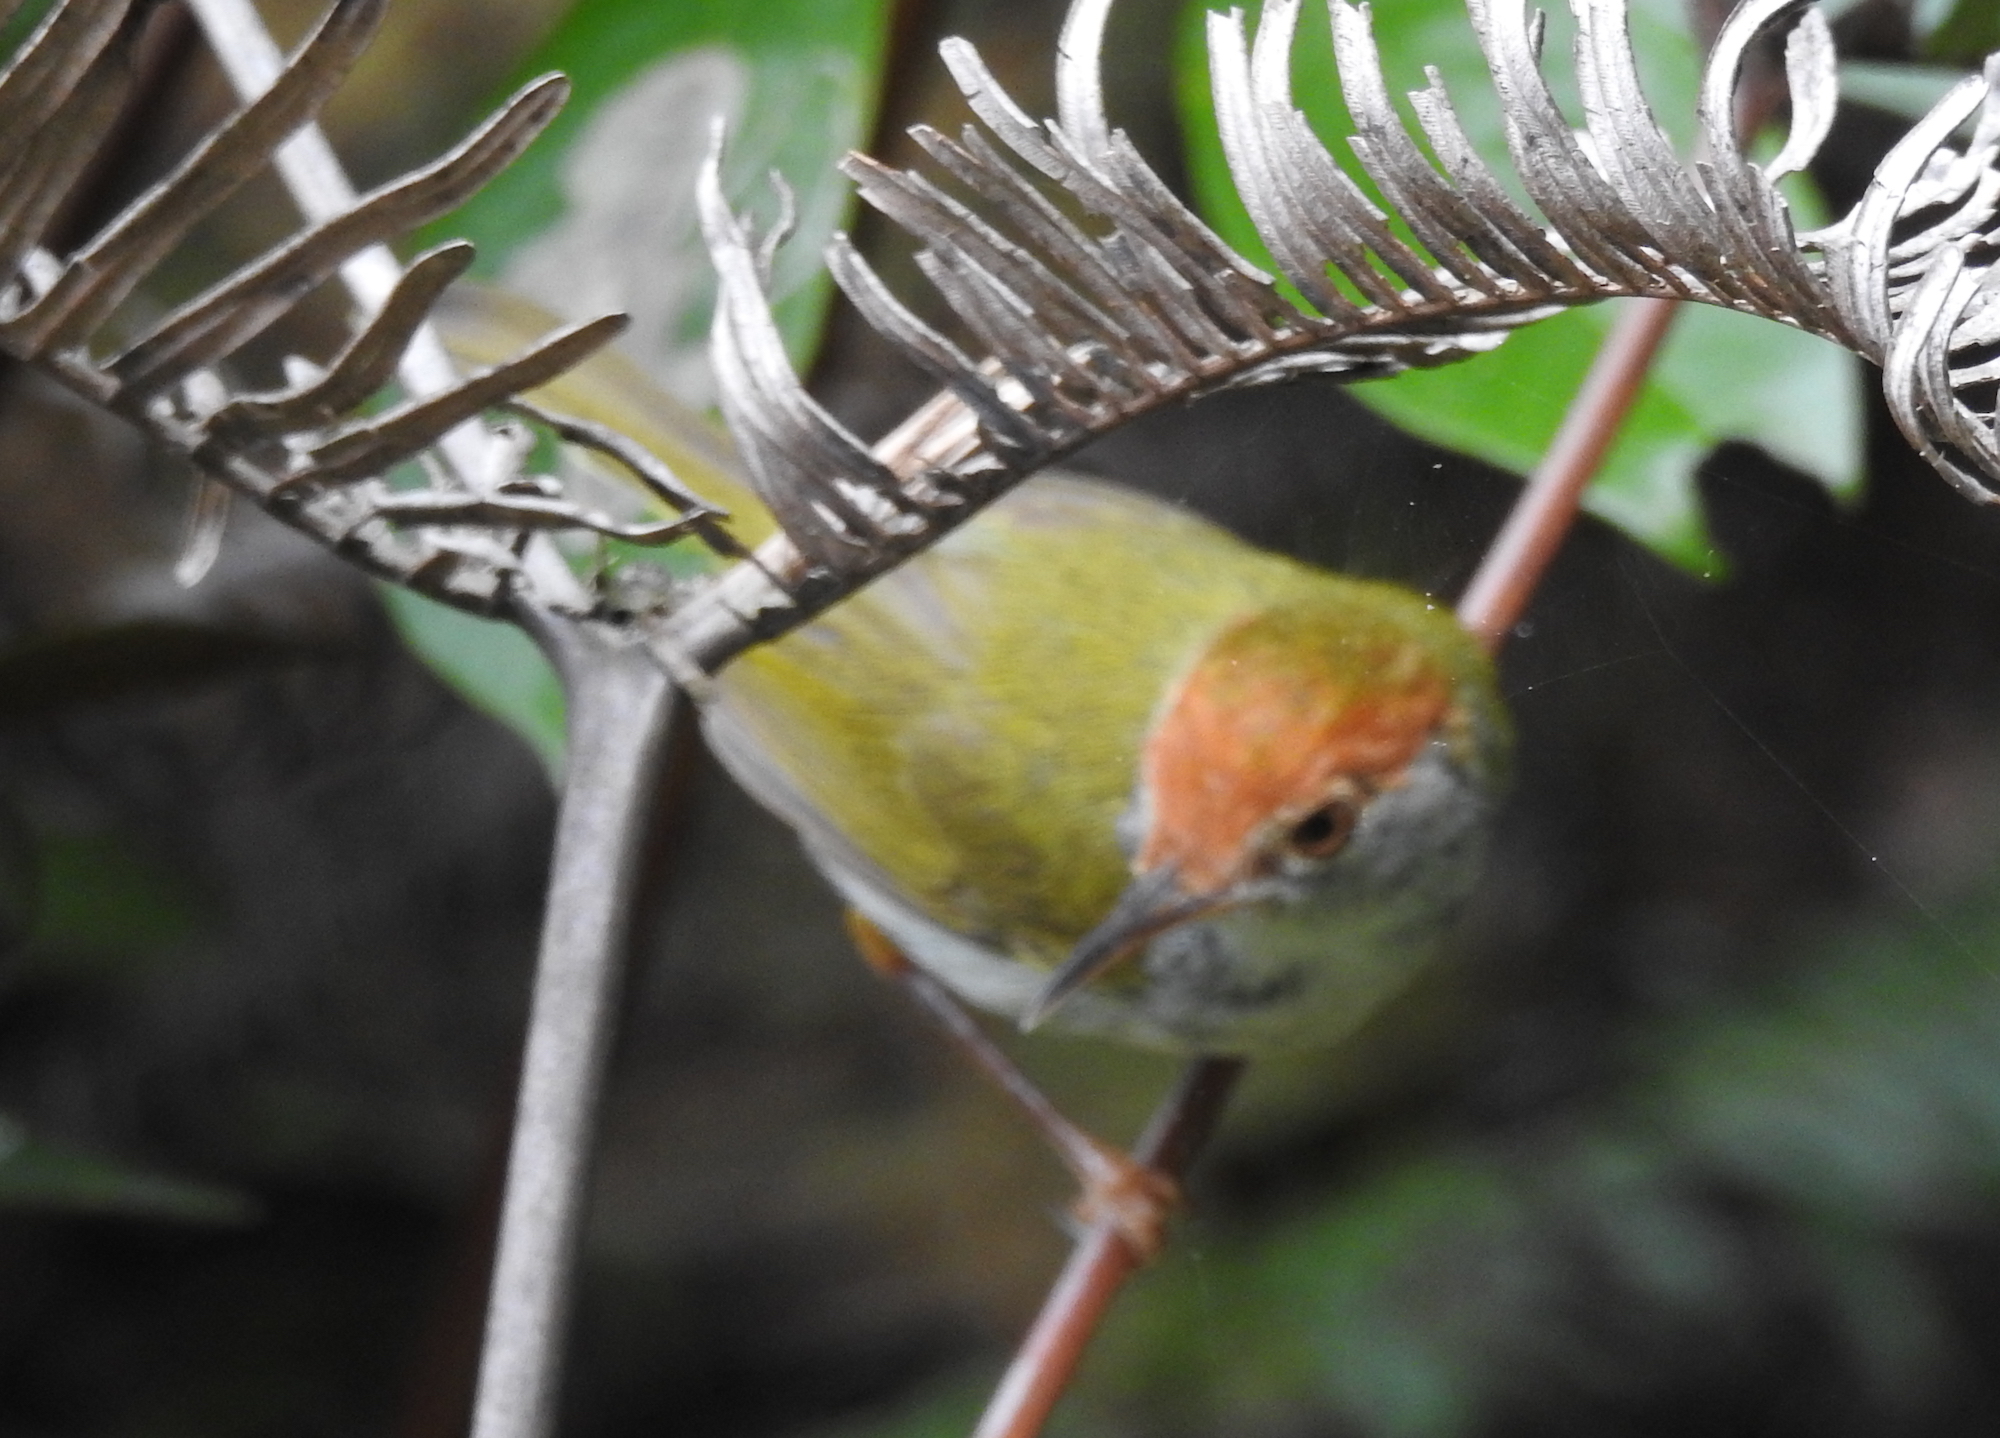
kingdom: Animalia
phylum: Chordata
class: Aves
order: Passeriformes
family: Cisticolidae
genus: Orthotomus
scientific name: Orthotomus atrogularis
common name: Dark-necked tailorbird
